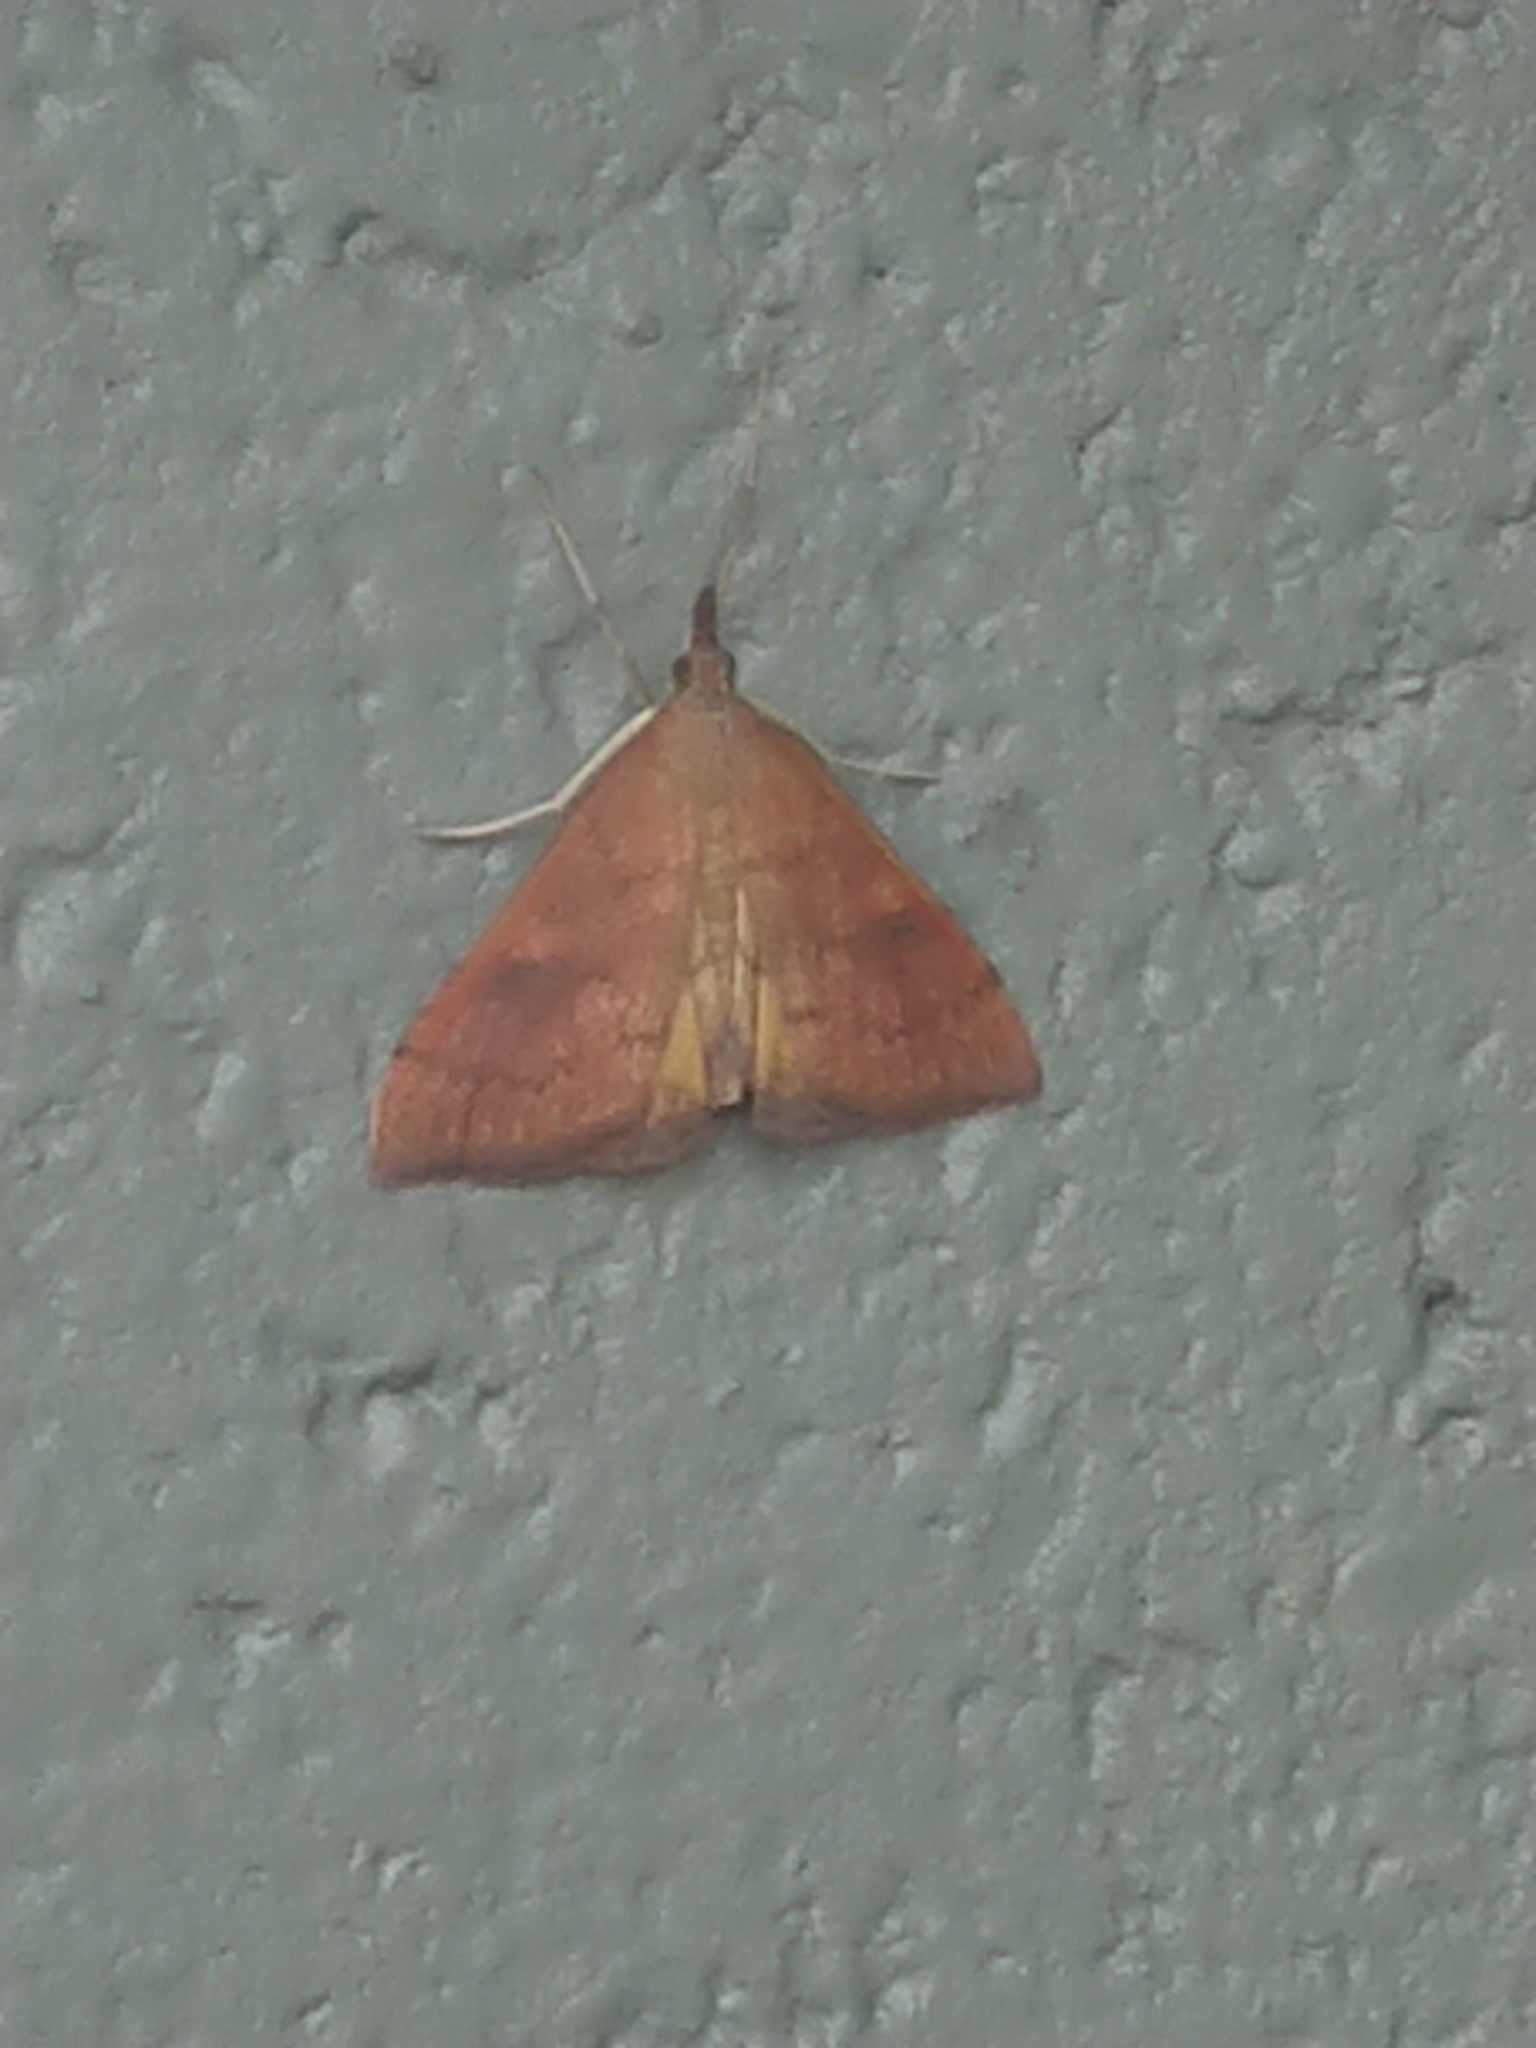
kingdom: Animalia
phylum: Arthropoda
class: Insecta
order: Lepidoptera
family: Crambidae
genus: Udea
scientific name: Udea Mnesictena flavidalis
